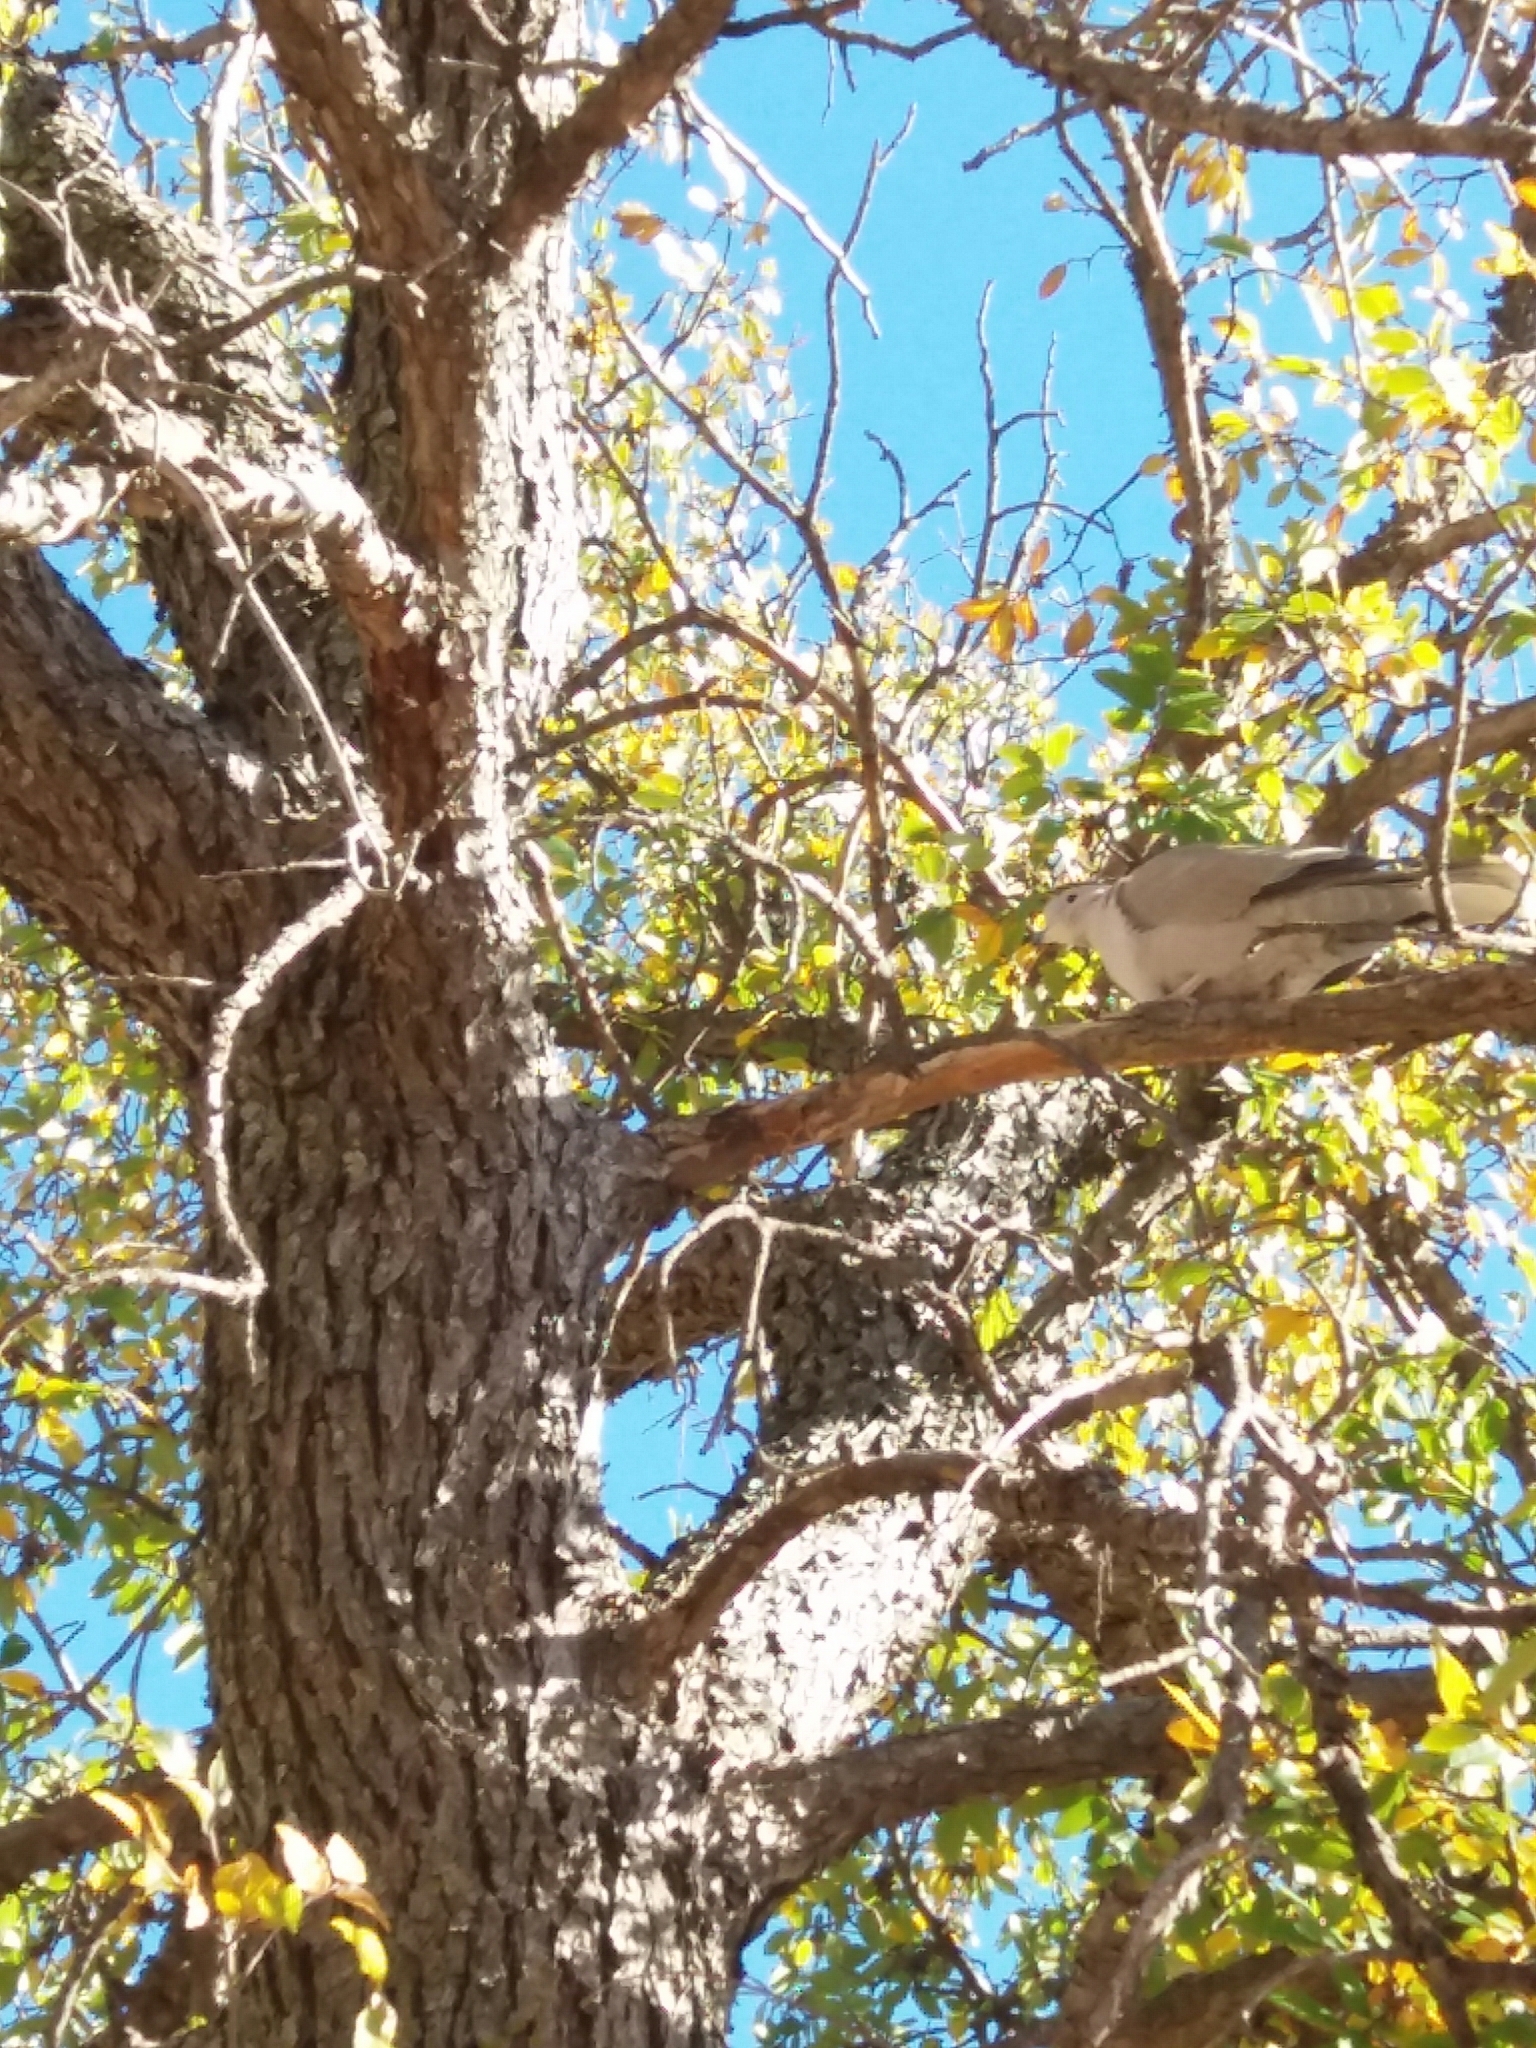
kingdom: Animalia
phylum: Chordata
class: Aves
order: Columbiformes
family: Columbidae
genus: Streptopelia
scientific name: Streptopelia decaocto
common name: Eurasian collared dove
